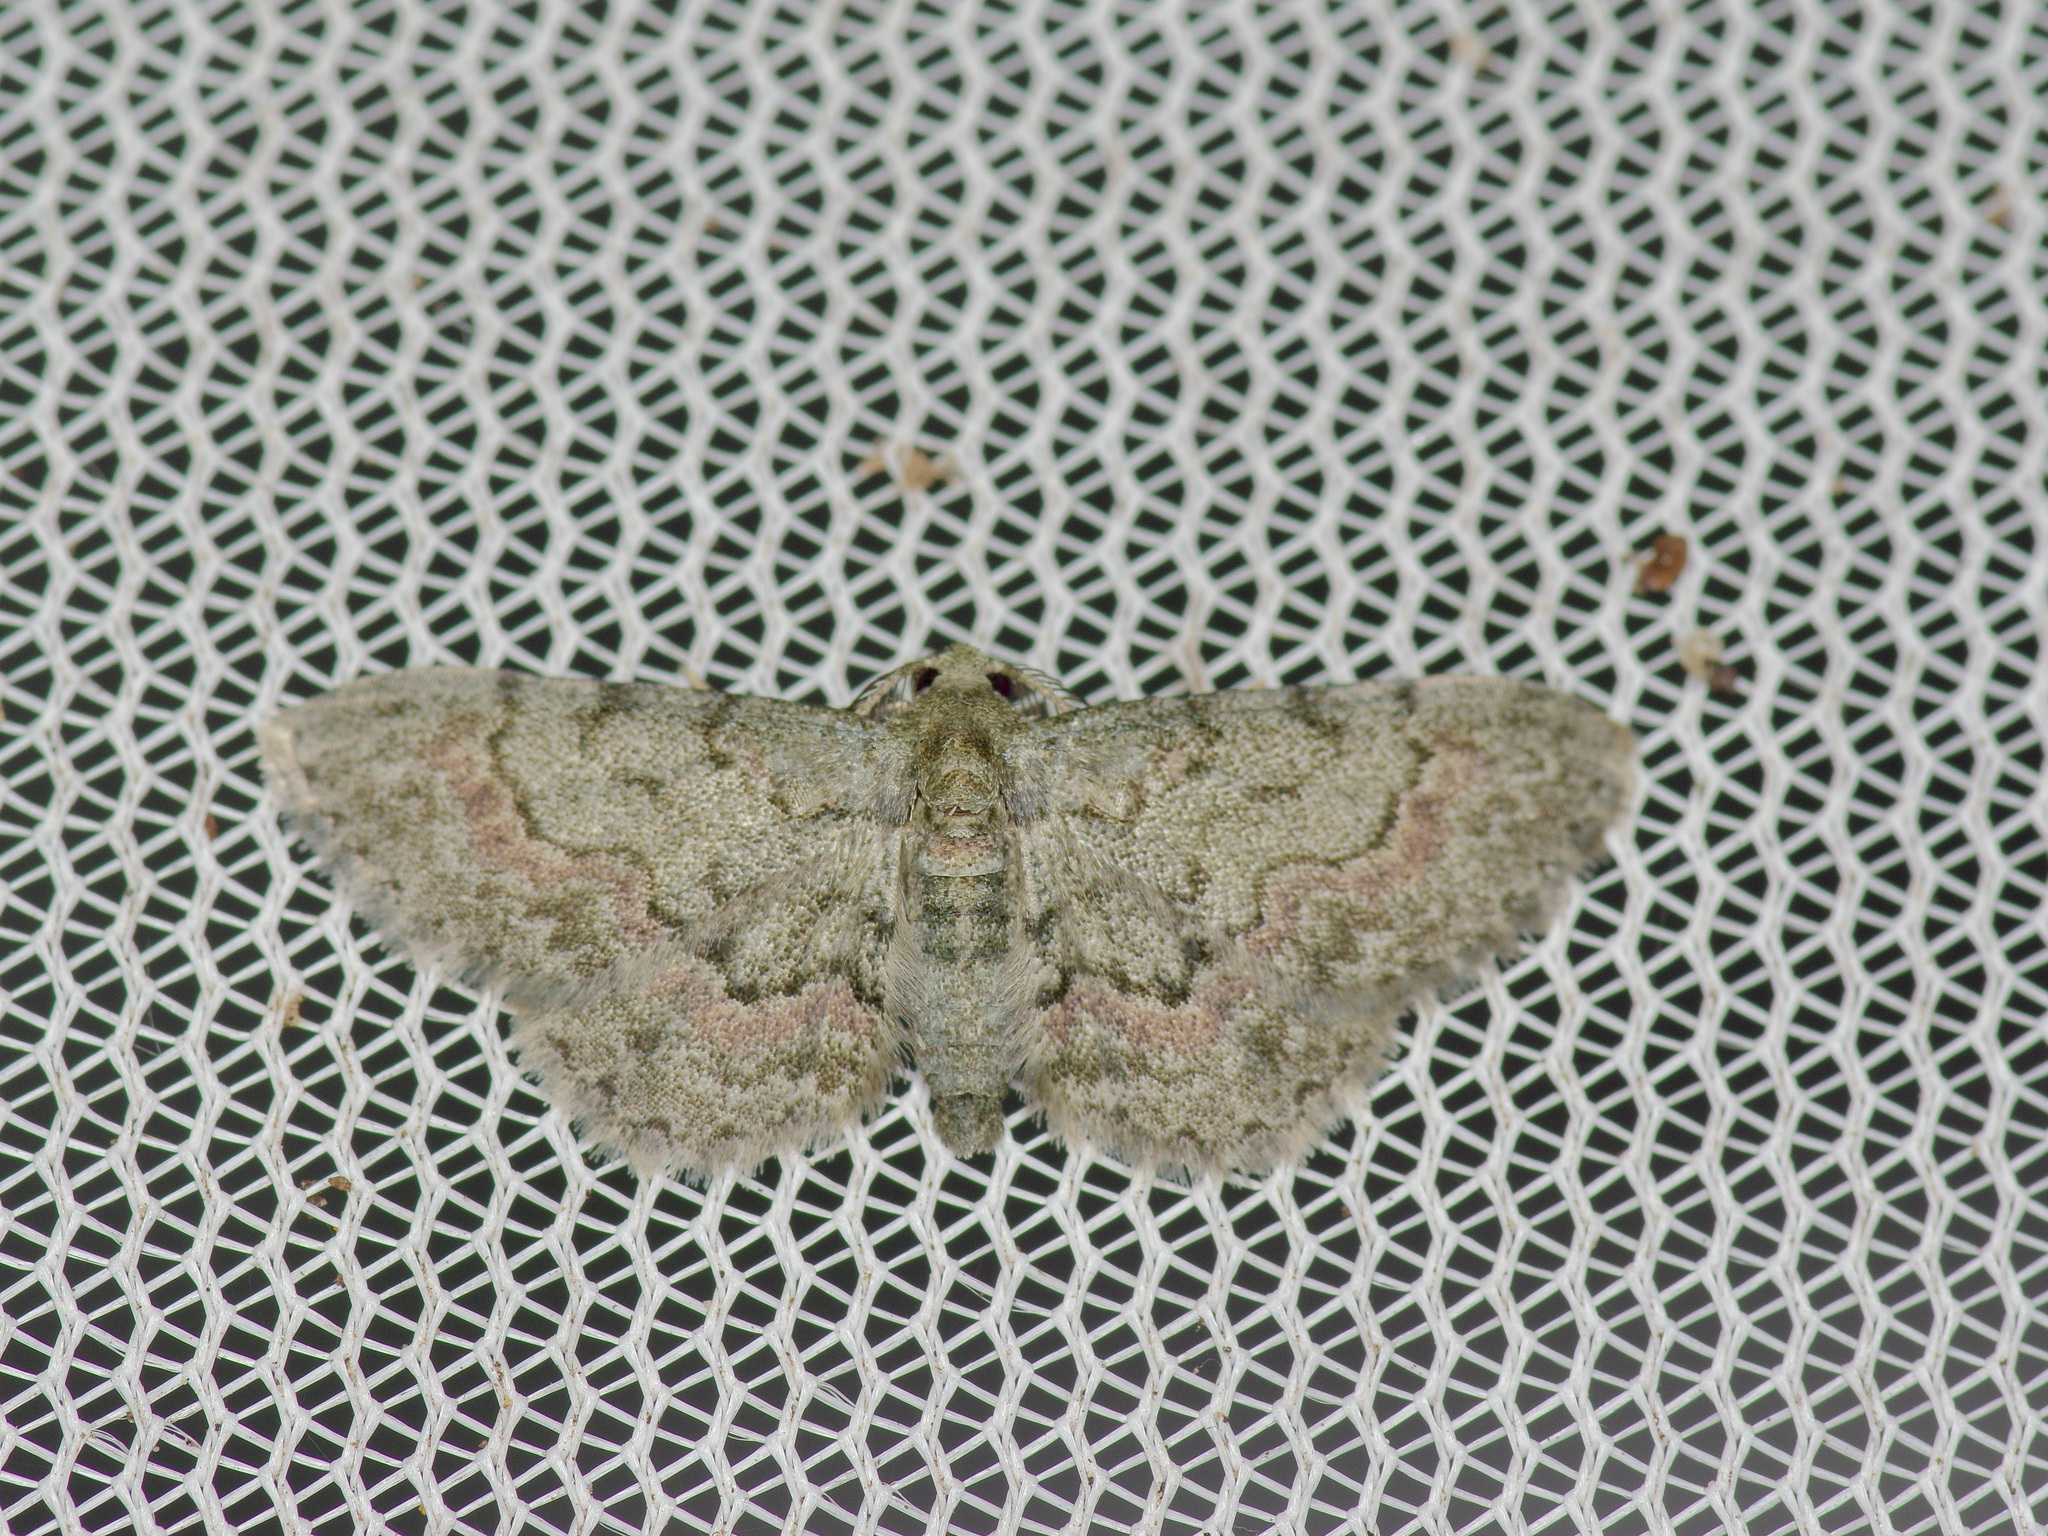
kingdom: Animalia
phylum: Arthropoda
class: Insecta
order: Lepidoptera
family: Geometridae
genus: Glenoides
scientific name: Glenoides texanaria
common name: Texas gray
